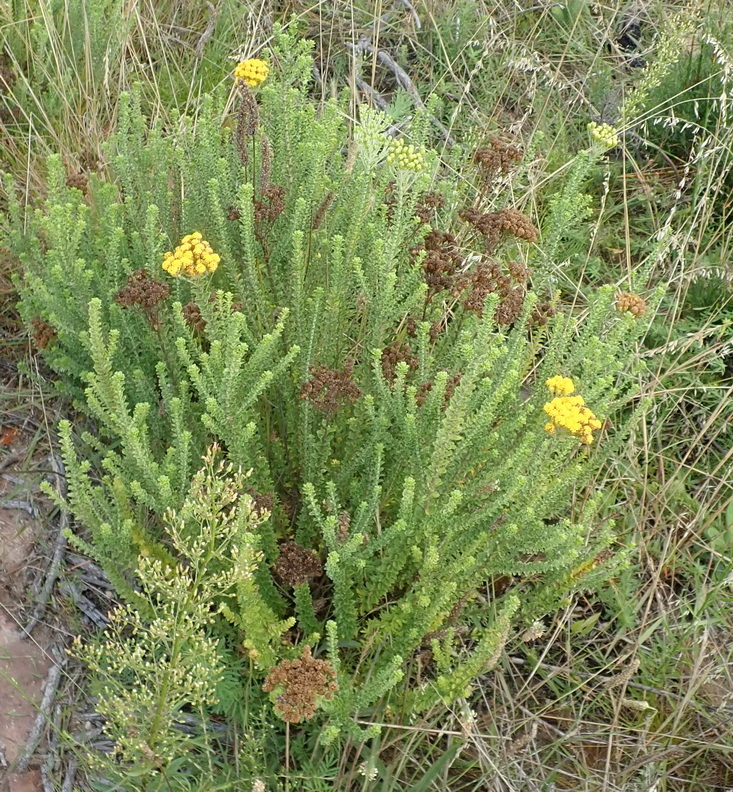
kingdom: Plantae
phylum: Tracheophyta
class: Magnoliopsida
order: Asterales
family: Asteraceae
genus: Athanasia
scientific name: Athanasia trifurcata
